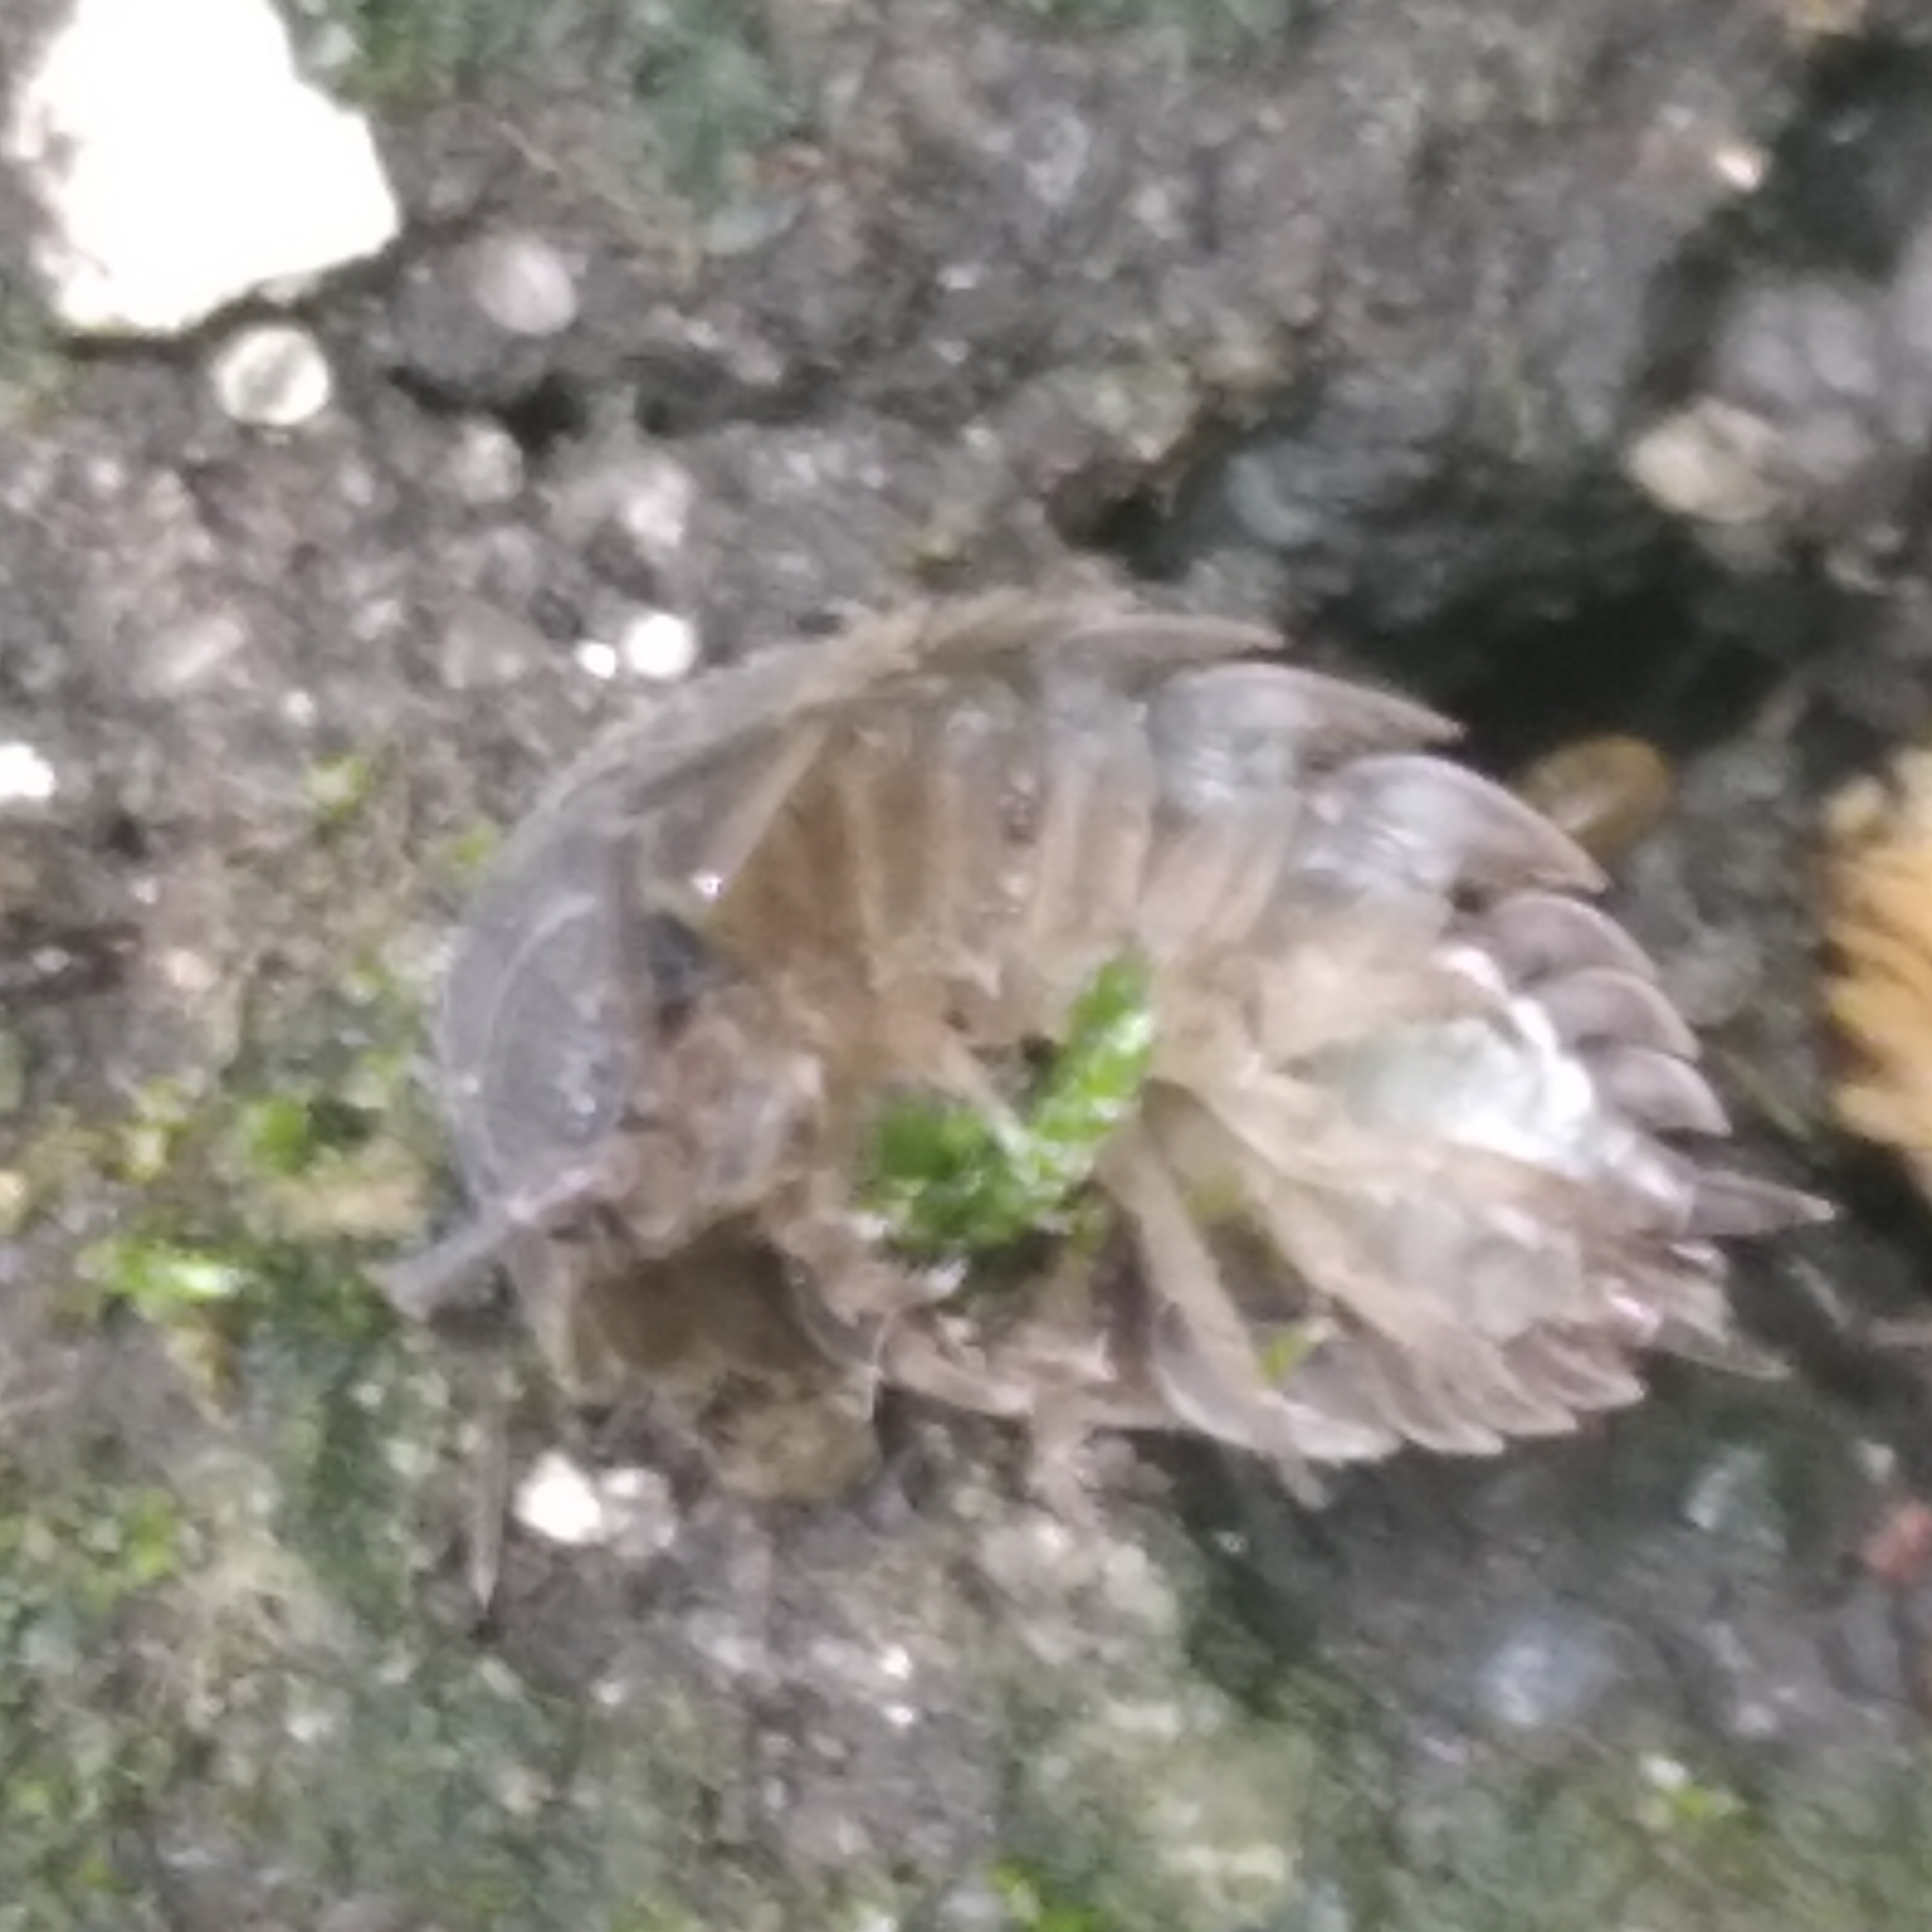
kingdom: Animalia
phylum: Arthropoda
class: Malacostraca
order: Isopoda
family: Trachelipodidae
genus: Trachelipus
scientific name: Trachelipus rathkii
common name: Isopod
